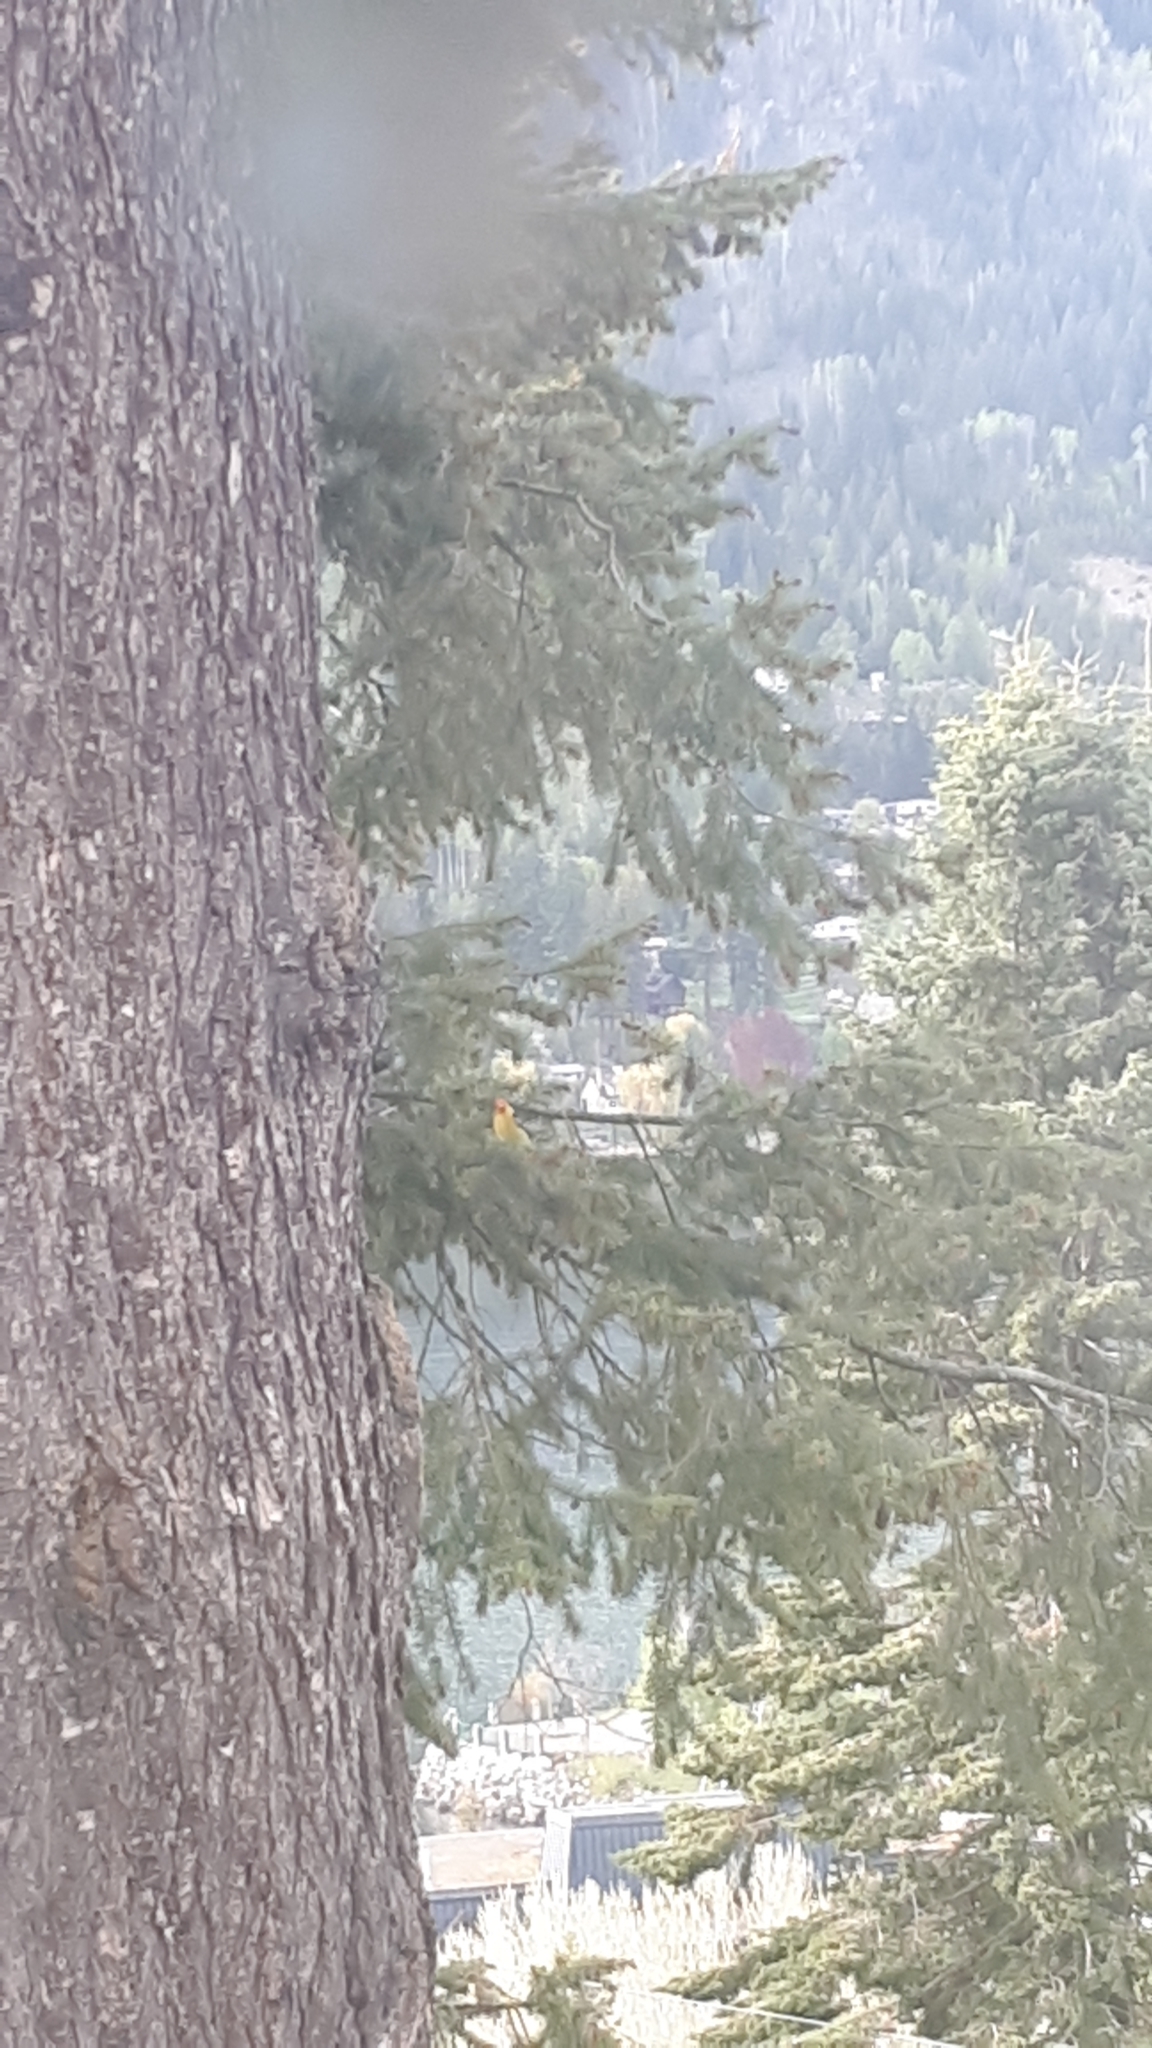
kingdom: Animalia
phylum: Chordata
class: Aves
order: Passeriformes
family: Cardinalidae
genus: Piranga
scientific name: Piranga ludoviciana
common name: Western tanager
